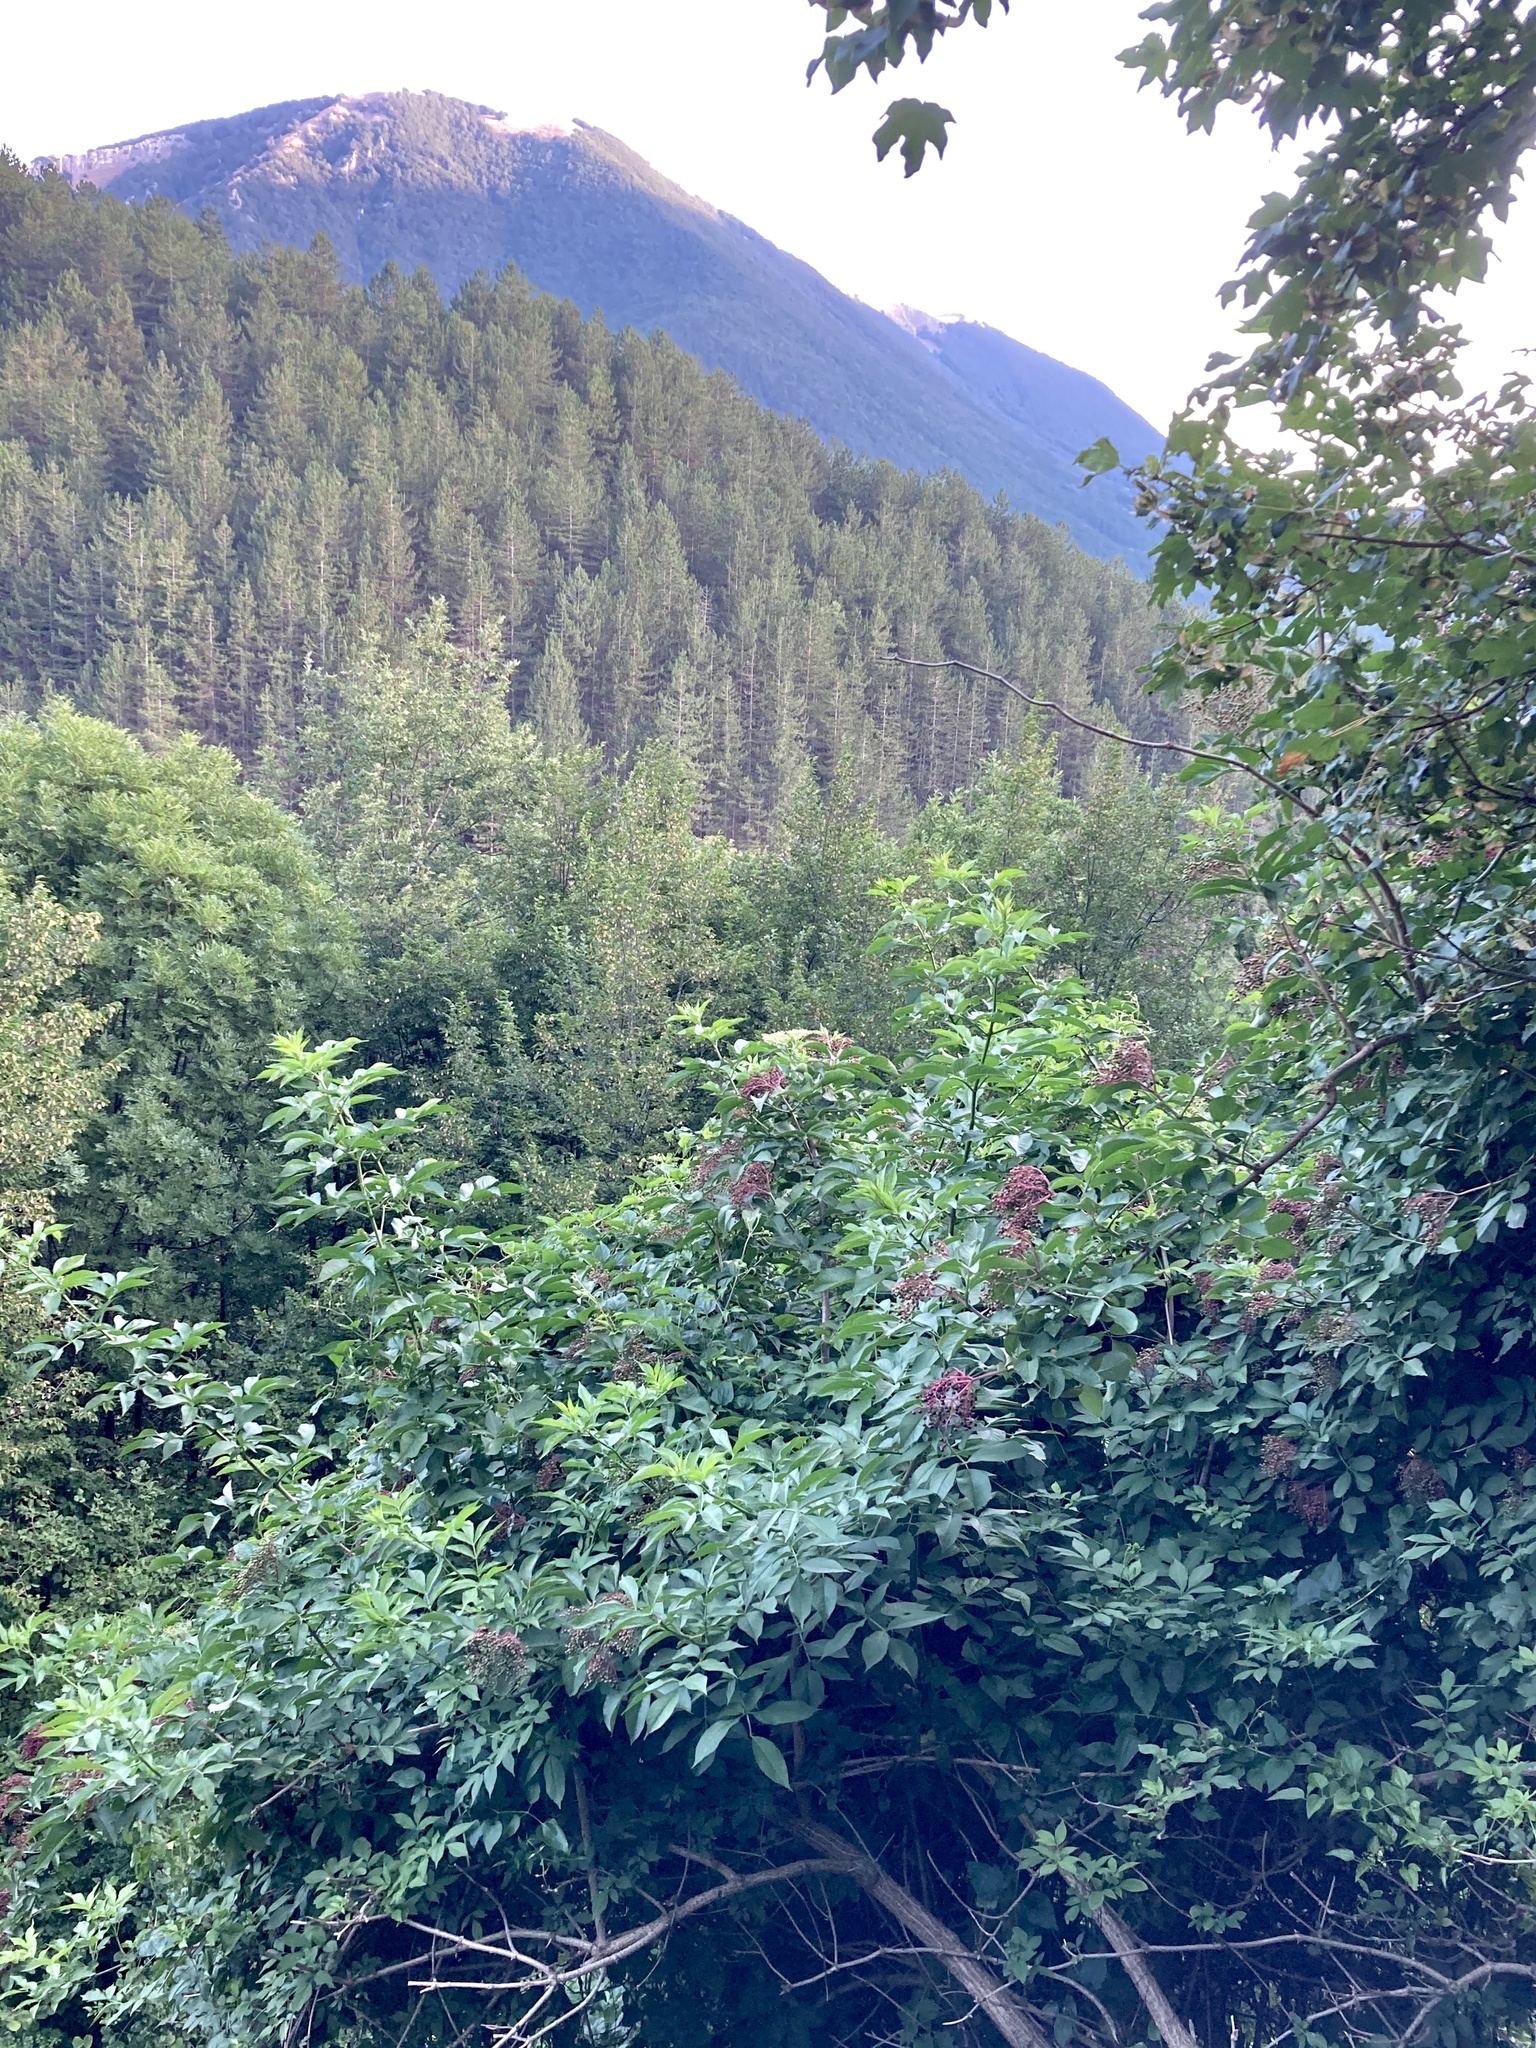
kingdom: Plantae
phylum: Tracheophyta
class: Magnoliopsida
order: Dipsacales
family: Viburnaceae
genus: Sambucus
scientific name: Sambucus nigra
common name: Elder
